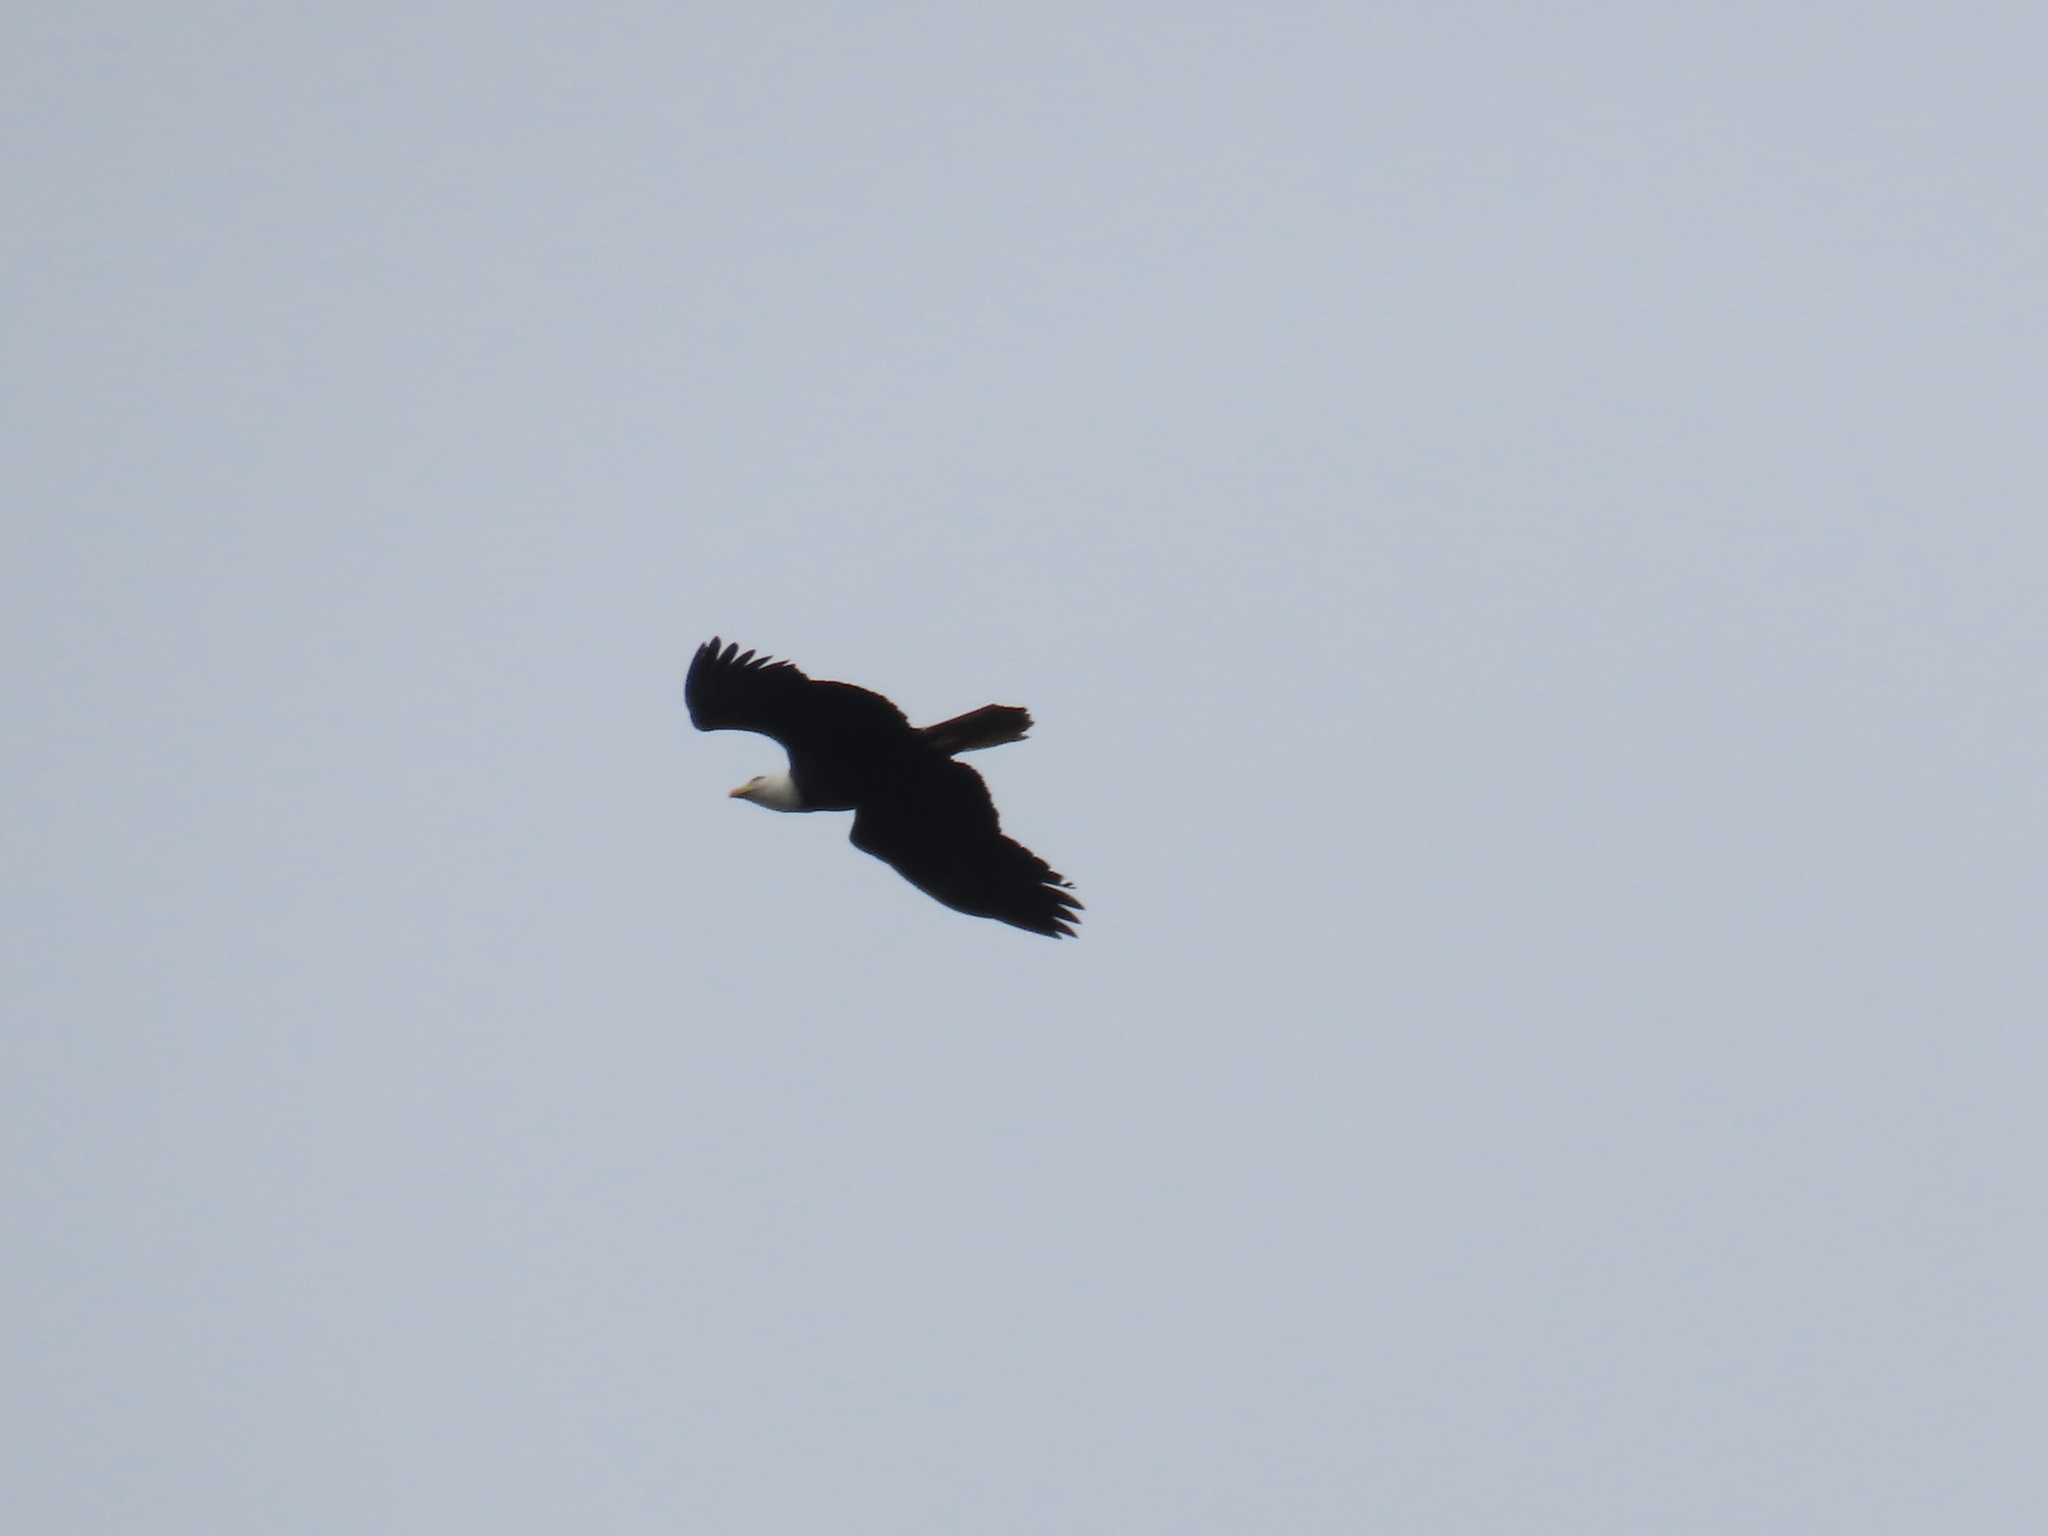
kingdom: Animalia
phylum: Chordata
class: Aves
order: Accipitriformes
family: Accipitridae
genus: Haliaeetus
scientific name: Haliaeetus leucocephalus
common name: Bald eagle
